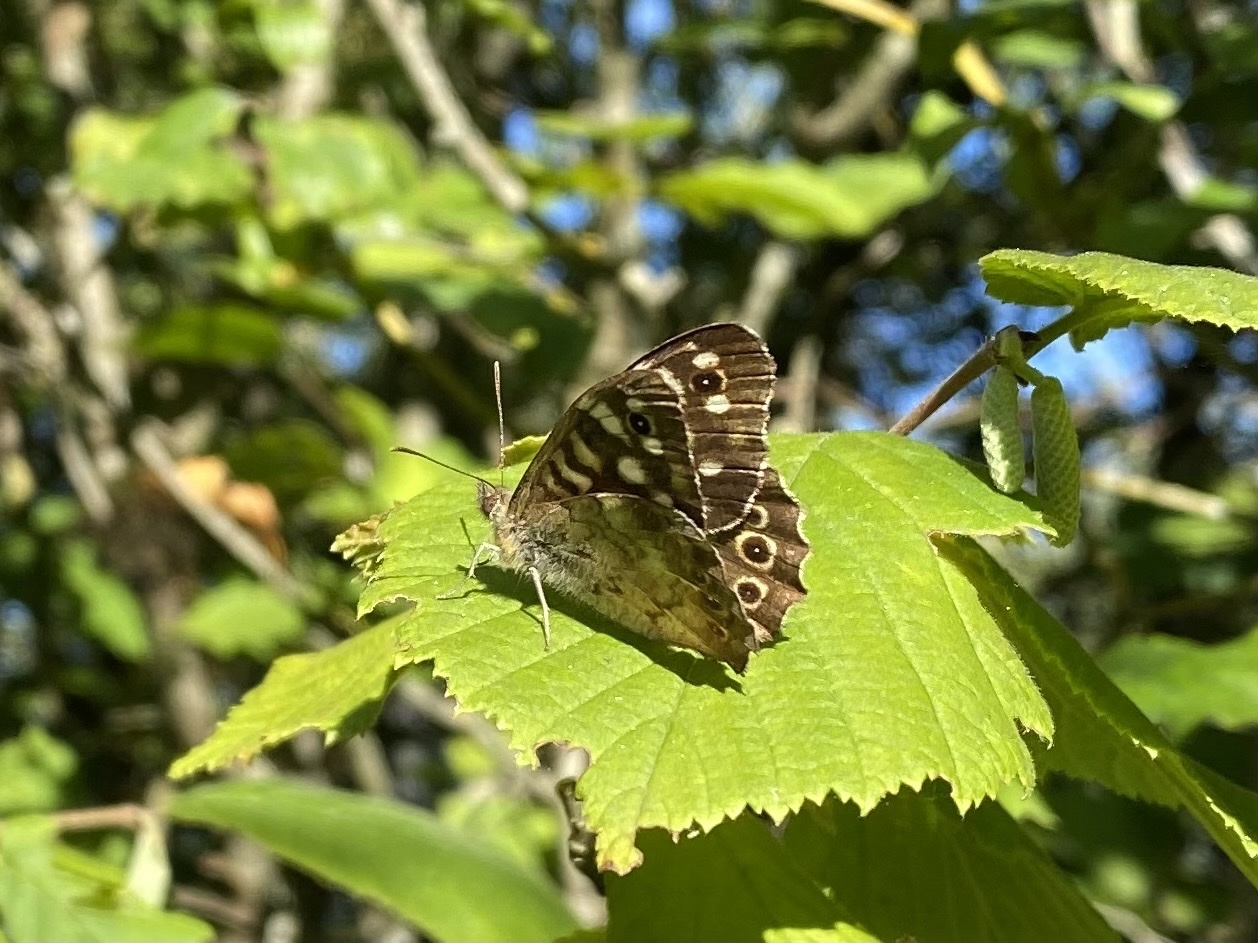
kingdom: Animalia
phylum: Arthropoda
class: Insecta
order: Lepidoptera
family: Nymphalidae
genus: Pararge
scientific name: Pararge aegeria
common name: Speckled wood
